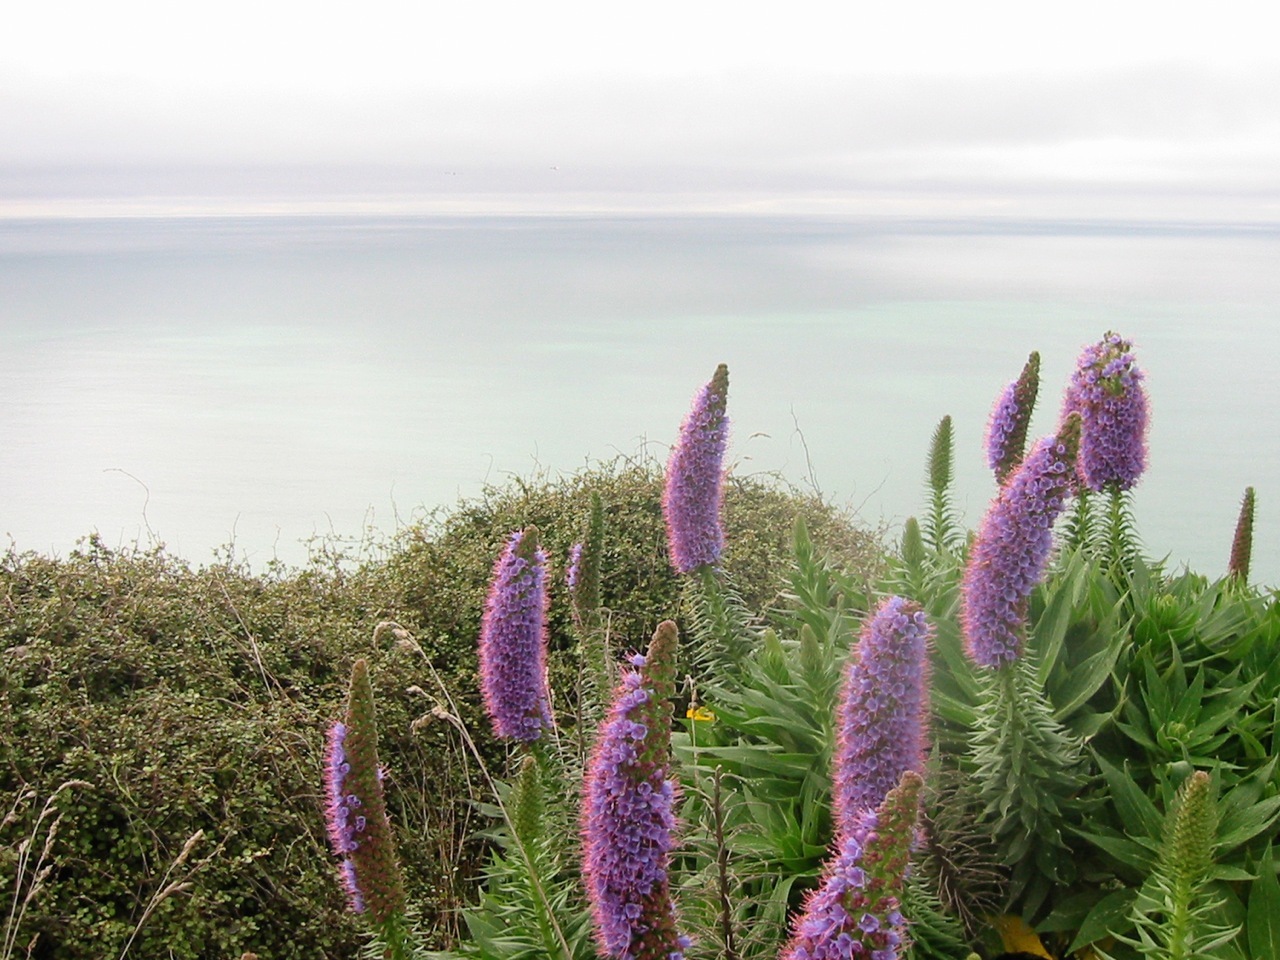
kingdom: Plantae
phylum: Tracheophyta
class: Magnoliopsida
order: Caryophyllales
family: Polygonaceae
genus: Muehlenbeckia
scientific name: Muehlenbeckia complexa
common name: Wireplant
